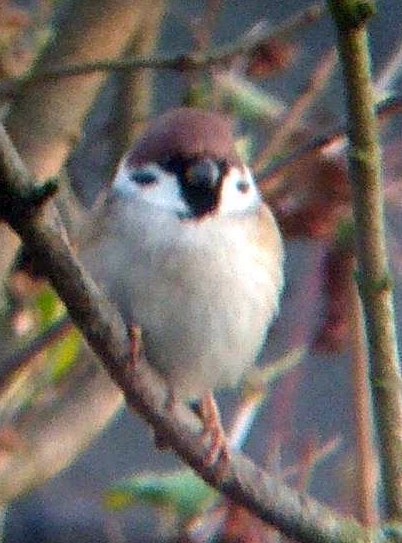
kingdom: Animalia
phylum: Chordata
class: Aves
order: Passeriformes
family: Passeridae
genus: Passer
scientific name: Passer montanus
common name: Eurasian tree sparrow
